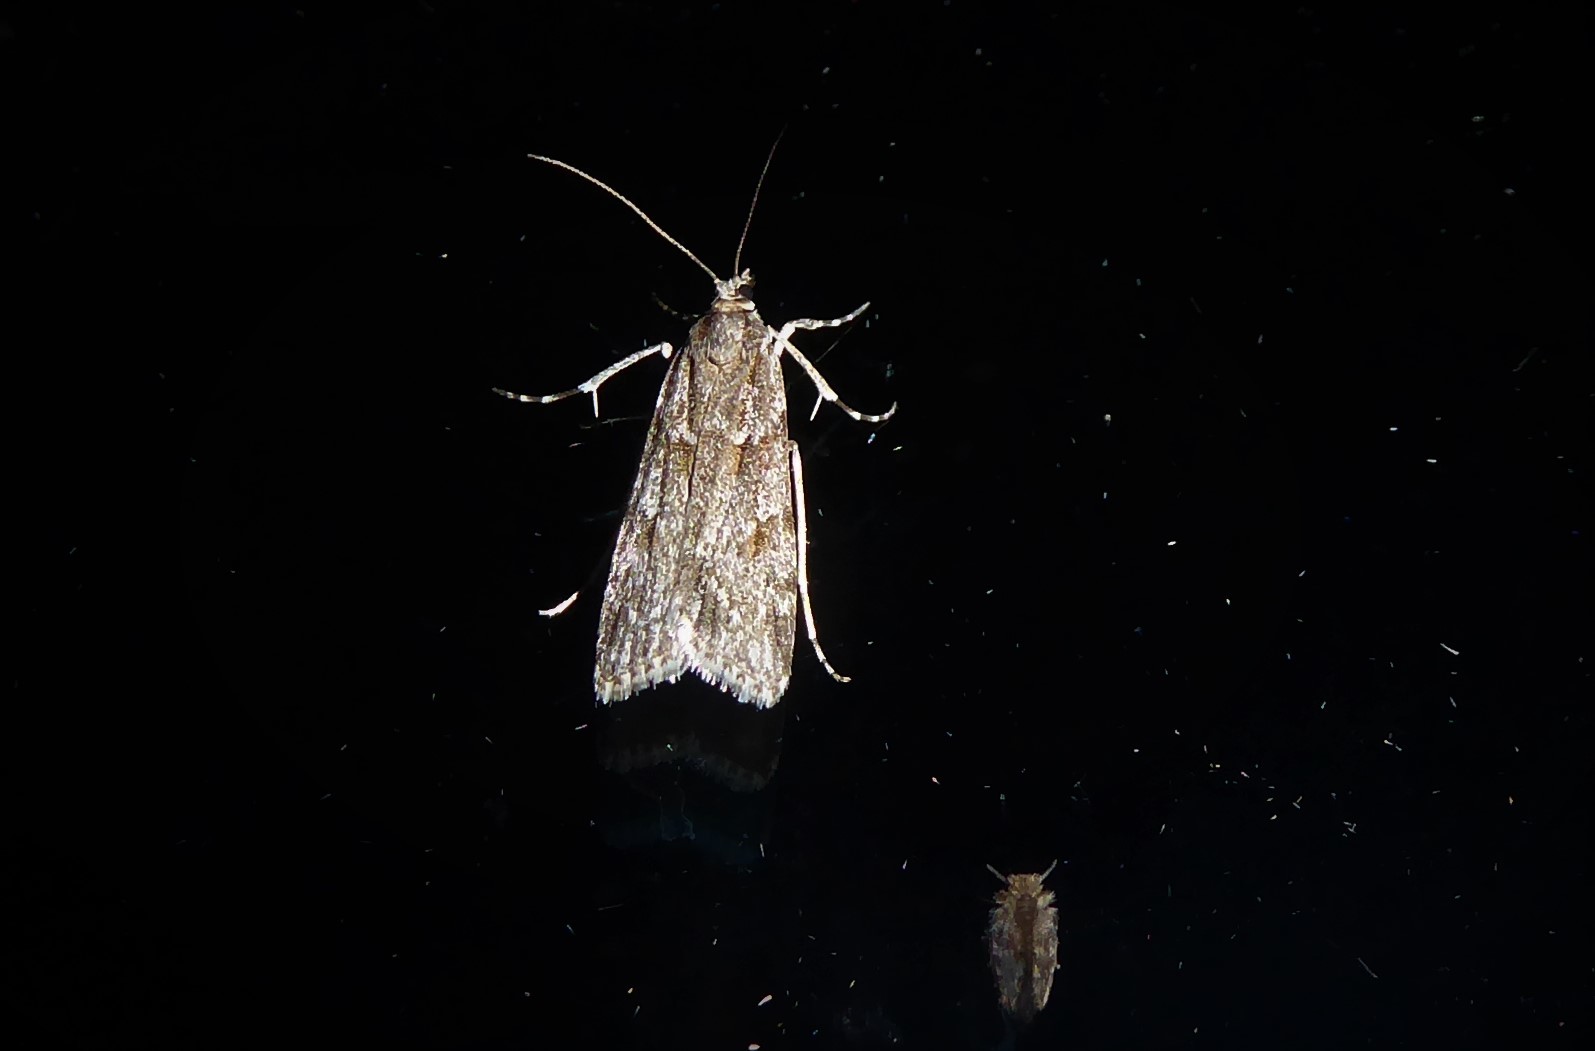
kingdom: Animalia
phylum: Arthropoda
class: Insecta
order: Lepidoptera
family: Crambidae
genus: Scoparia
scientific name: Scoparia chalicodes
